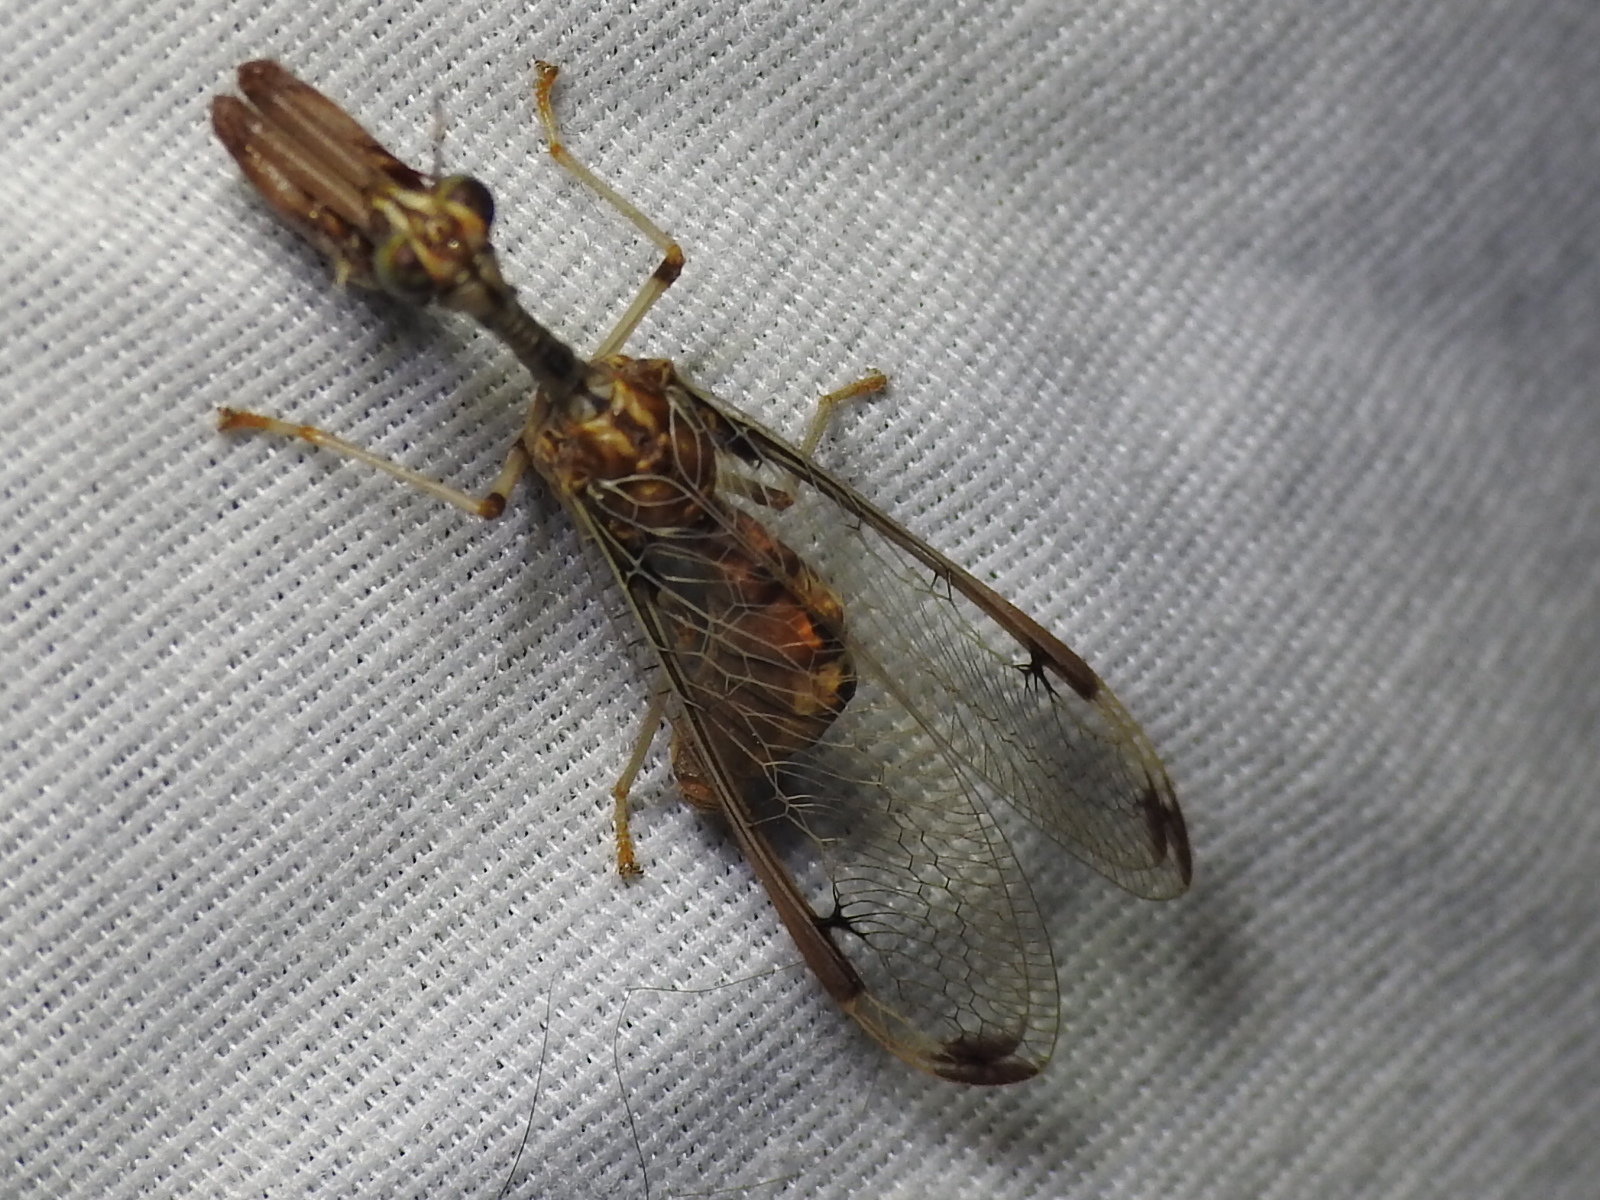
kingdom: Animalia
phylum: Arthropoda
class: Insecta
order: Neuroptera
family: Mantispidae
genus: Dicromantispa
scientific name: Dicromantispa interrupta
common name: Four-spotted mantidfly
